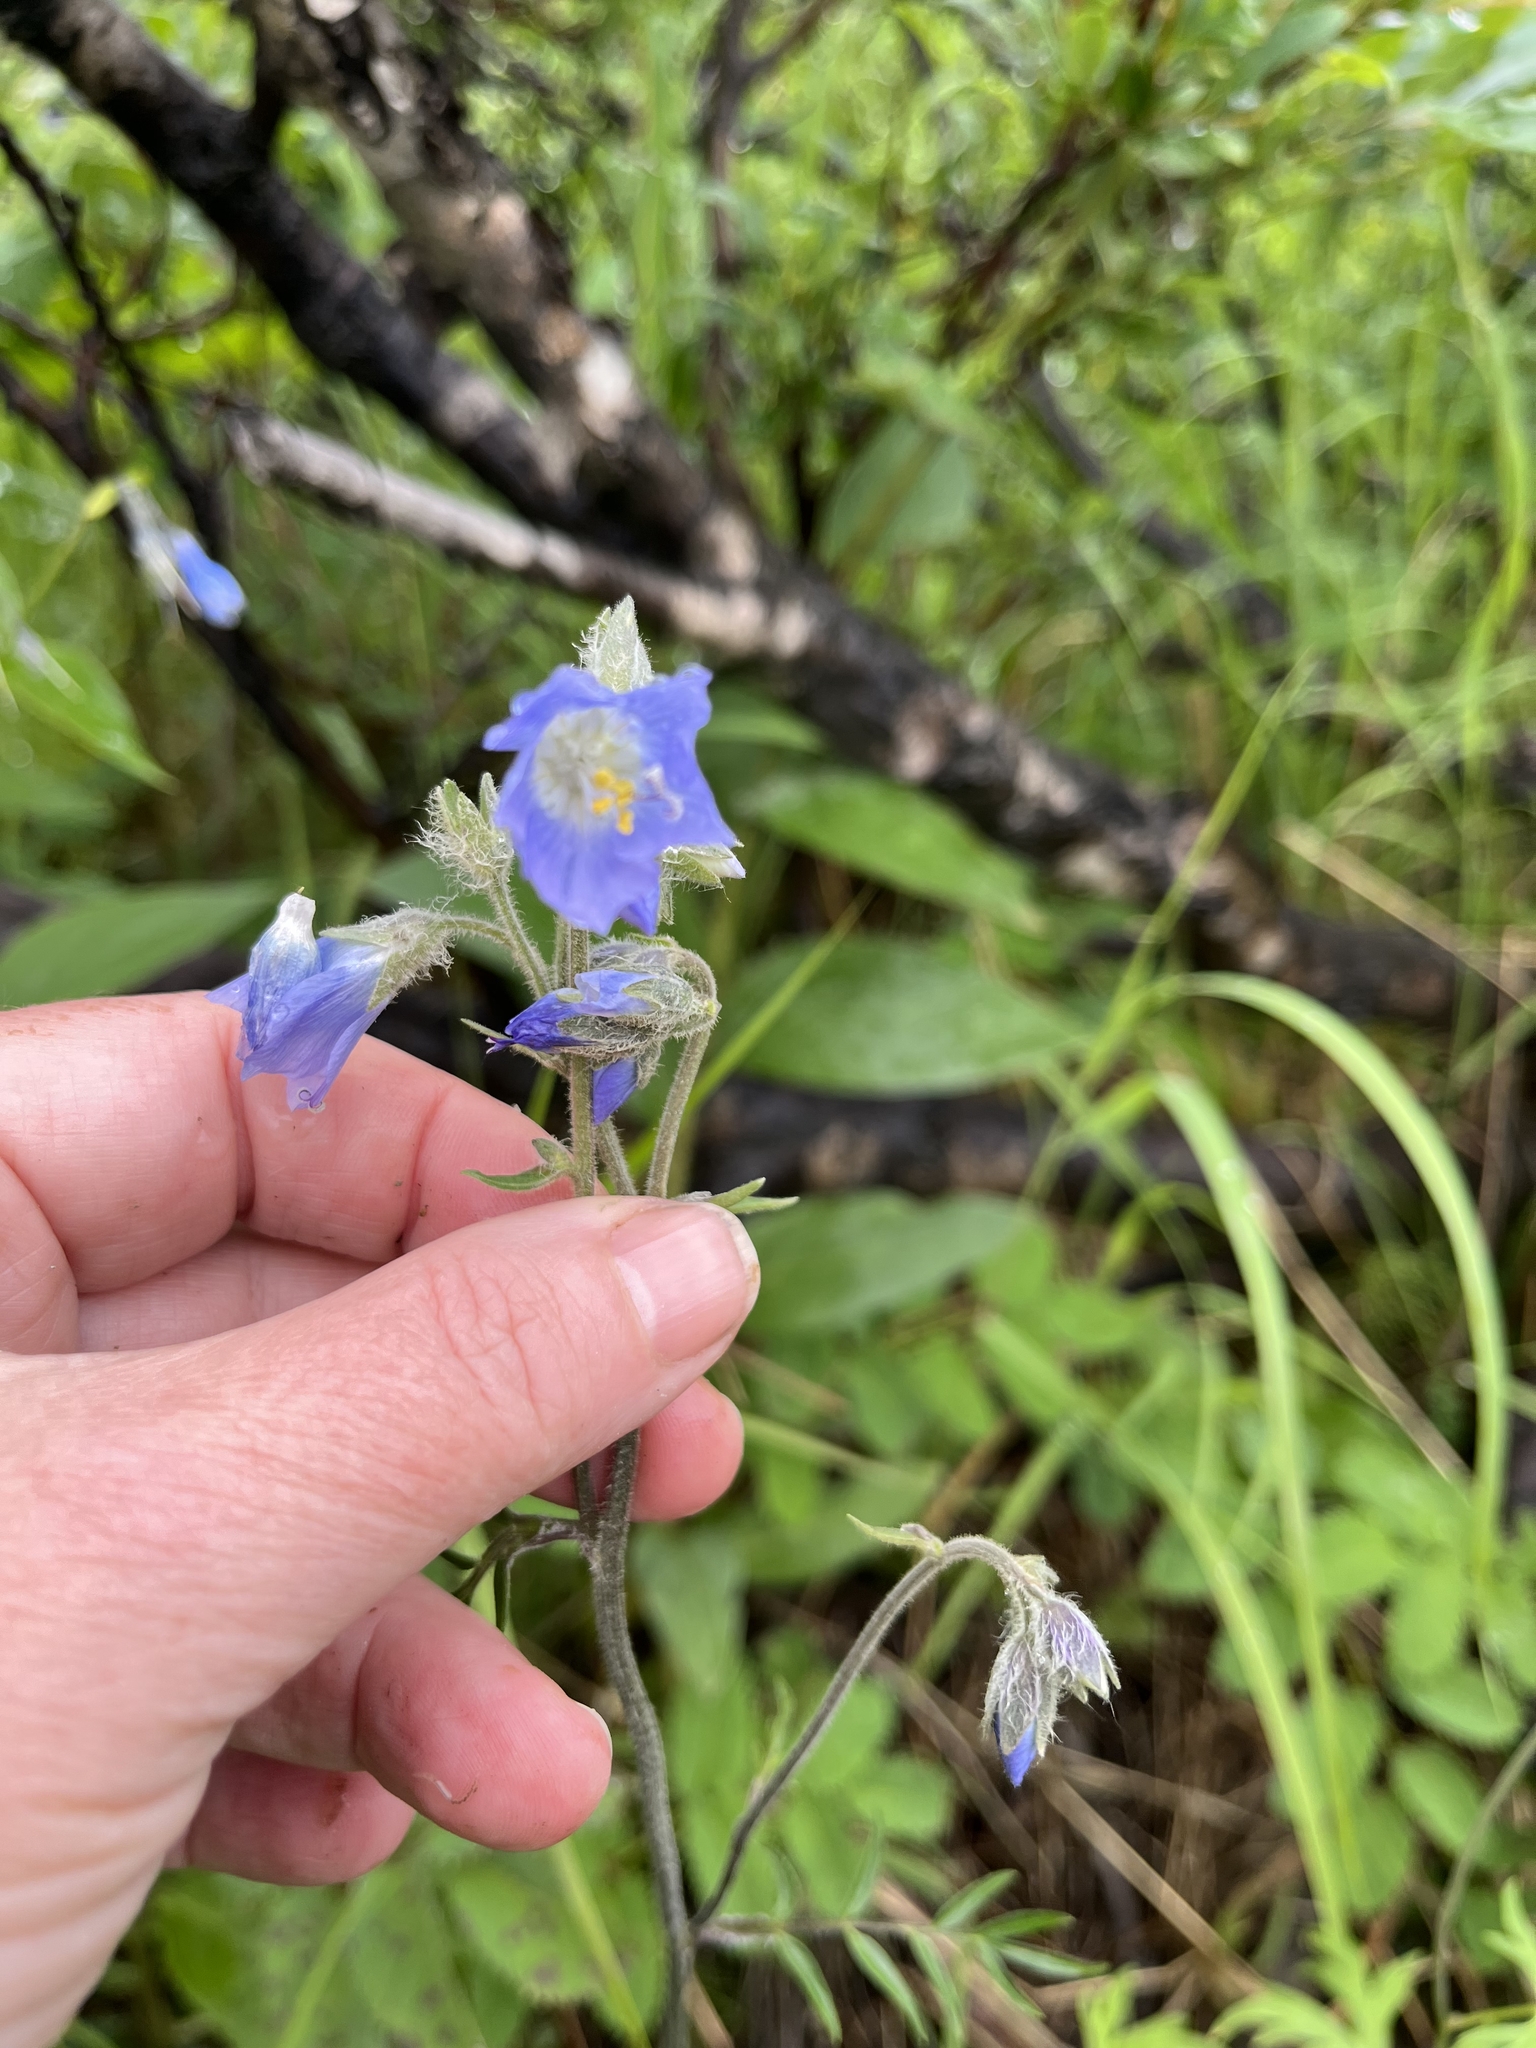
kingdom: Plantae
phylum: Tracheophyta
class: Magnoliopsida
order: Ericales
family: Polemoniaceae
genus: Polemonium
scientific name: Polemonium acutiflorum
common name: Tall jacob's-ladder
